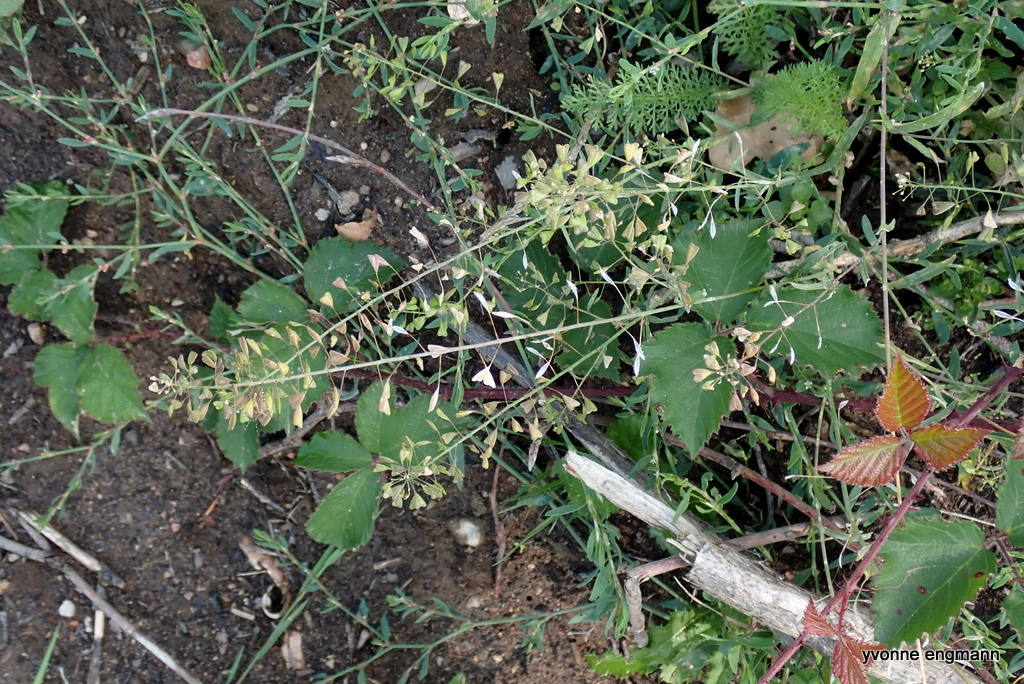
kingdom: Plantae
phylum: Tracheophyta
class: Magnoliopsida
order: Brassicales
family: Brassicaceae
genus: Capsella
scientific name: Capsella bursa-pastoris
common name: Shepherd's purse
